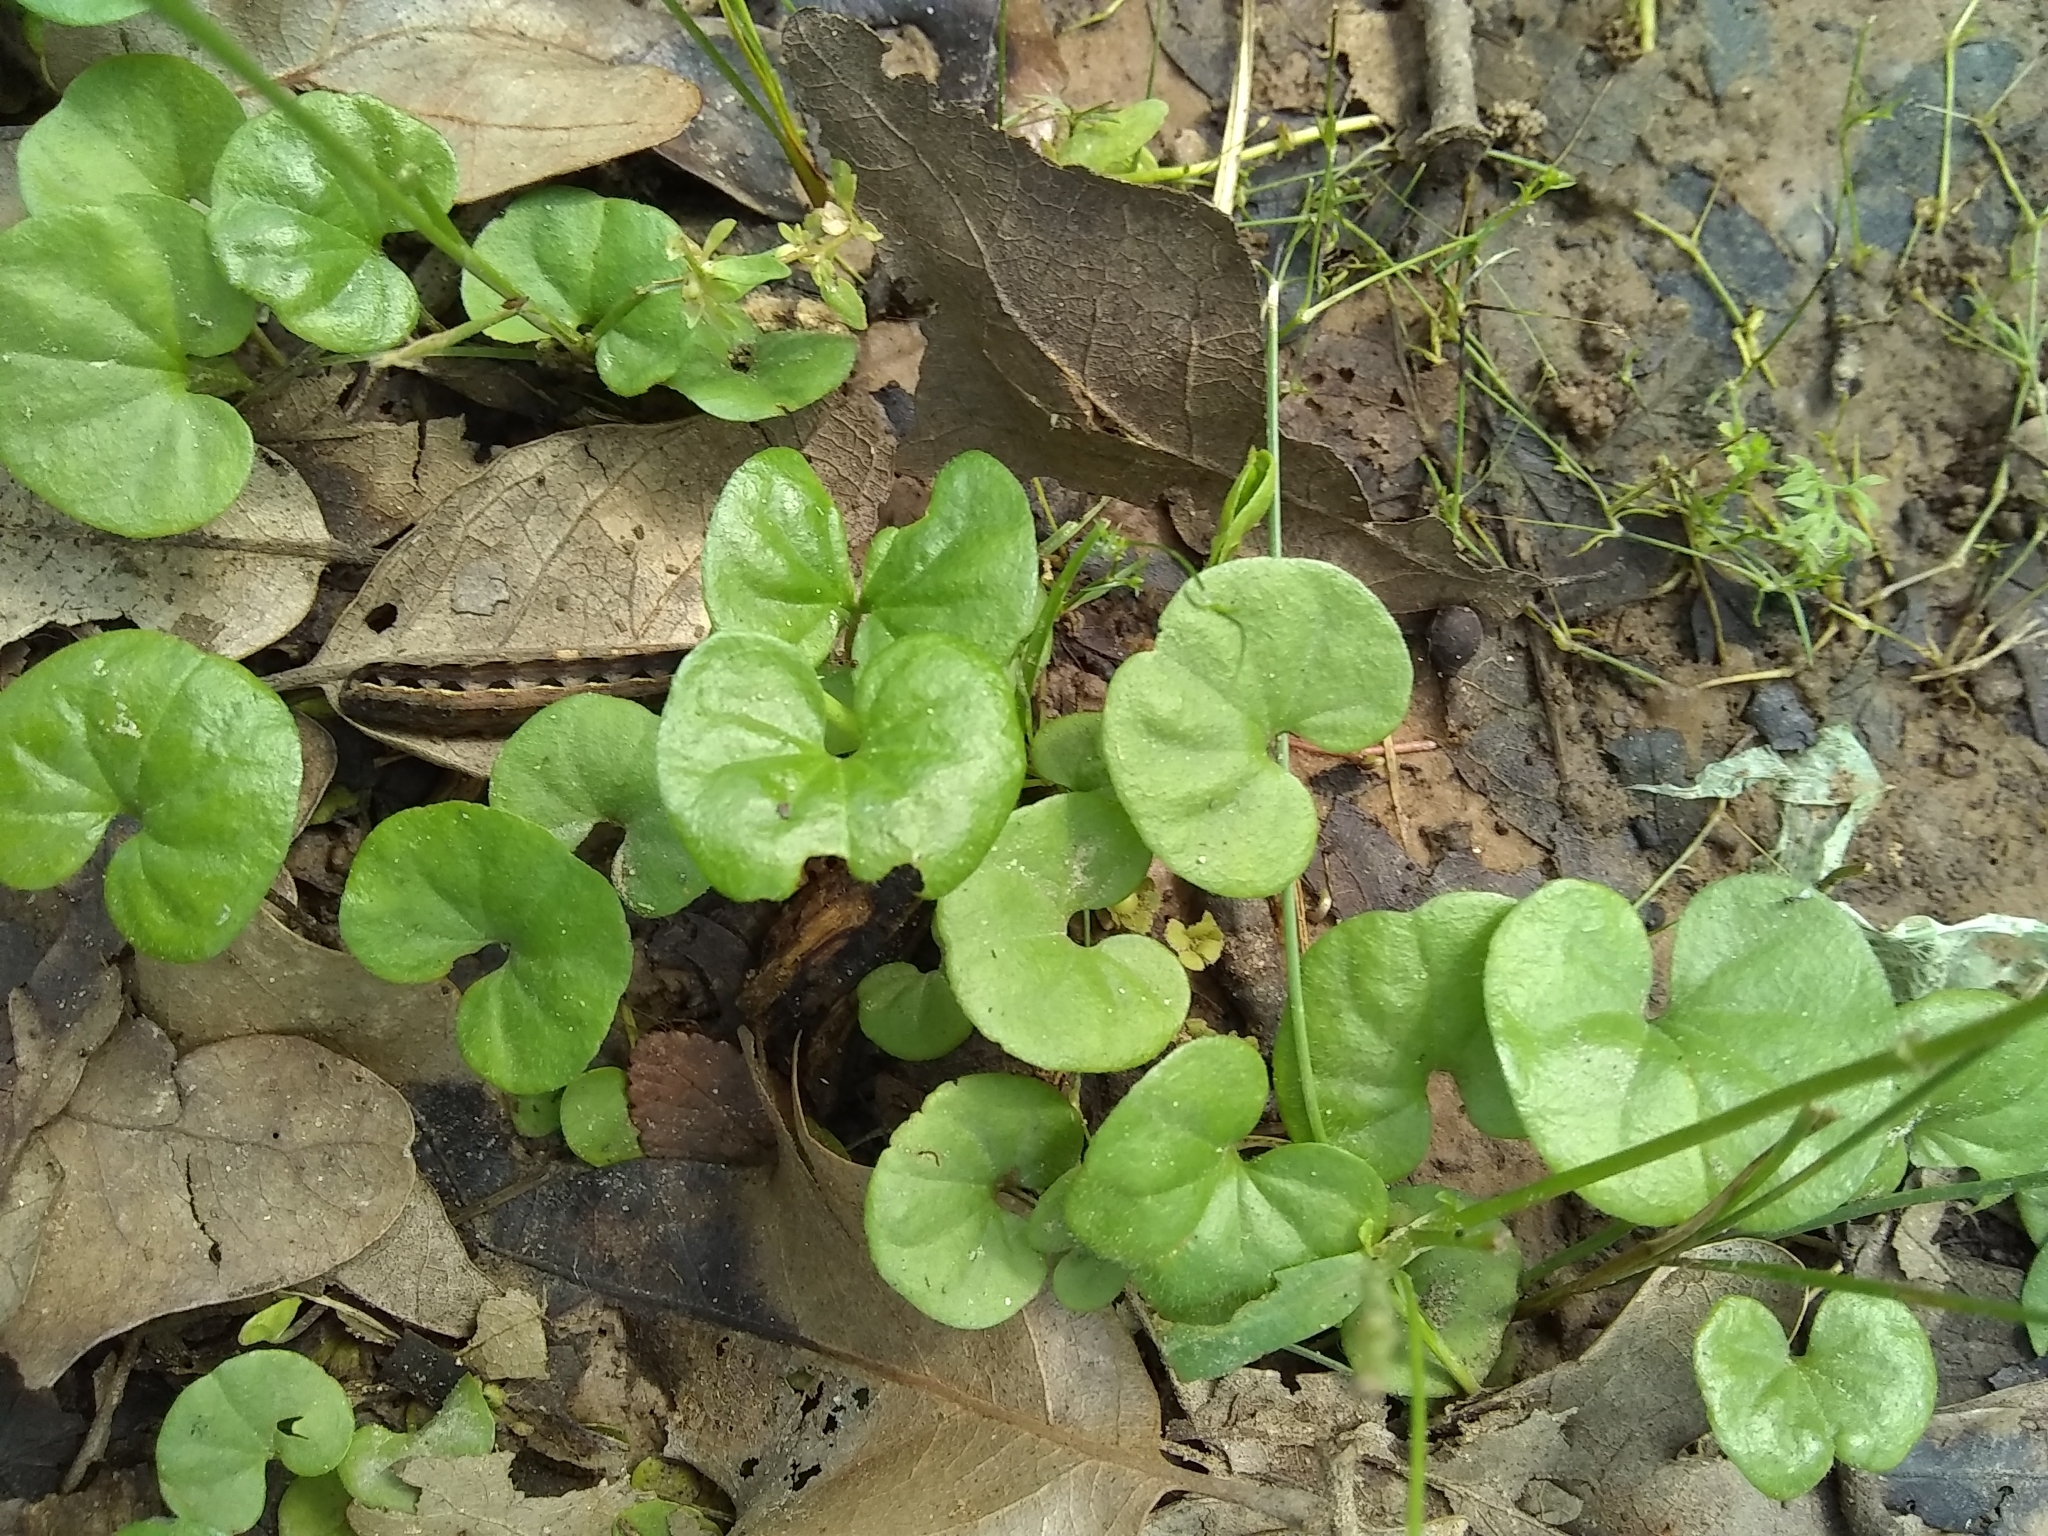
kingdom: Plantae
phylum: Tracheophyta
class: Magnoliopsida
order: Solanales
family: Convolvulaceae
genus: Dichondra
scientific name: Dichondra carolinensis
